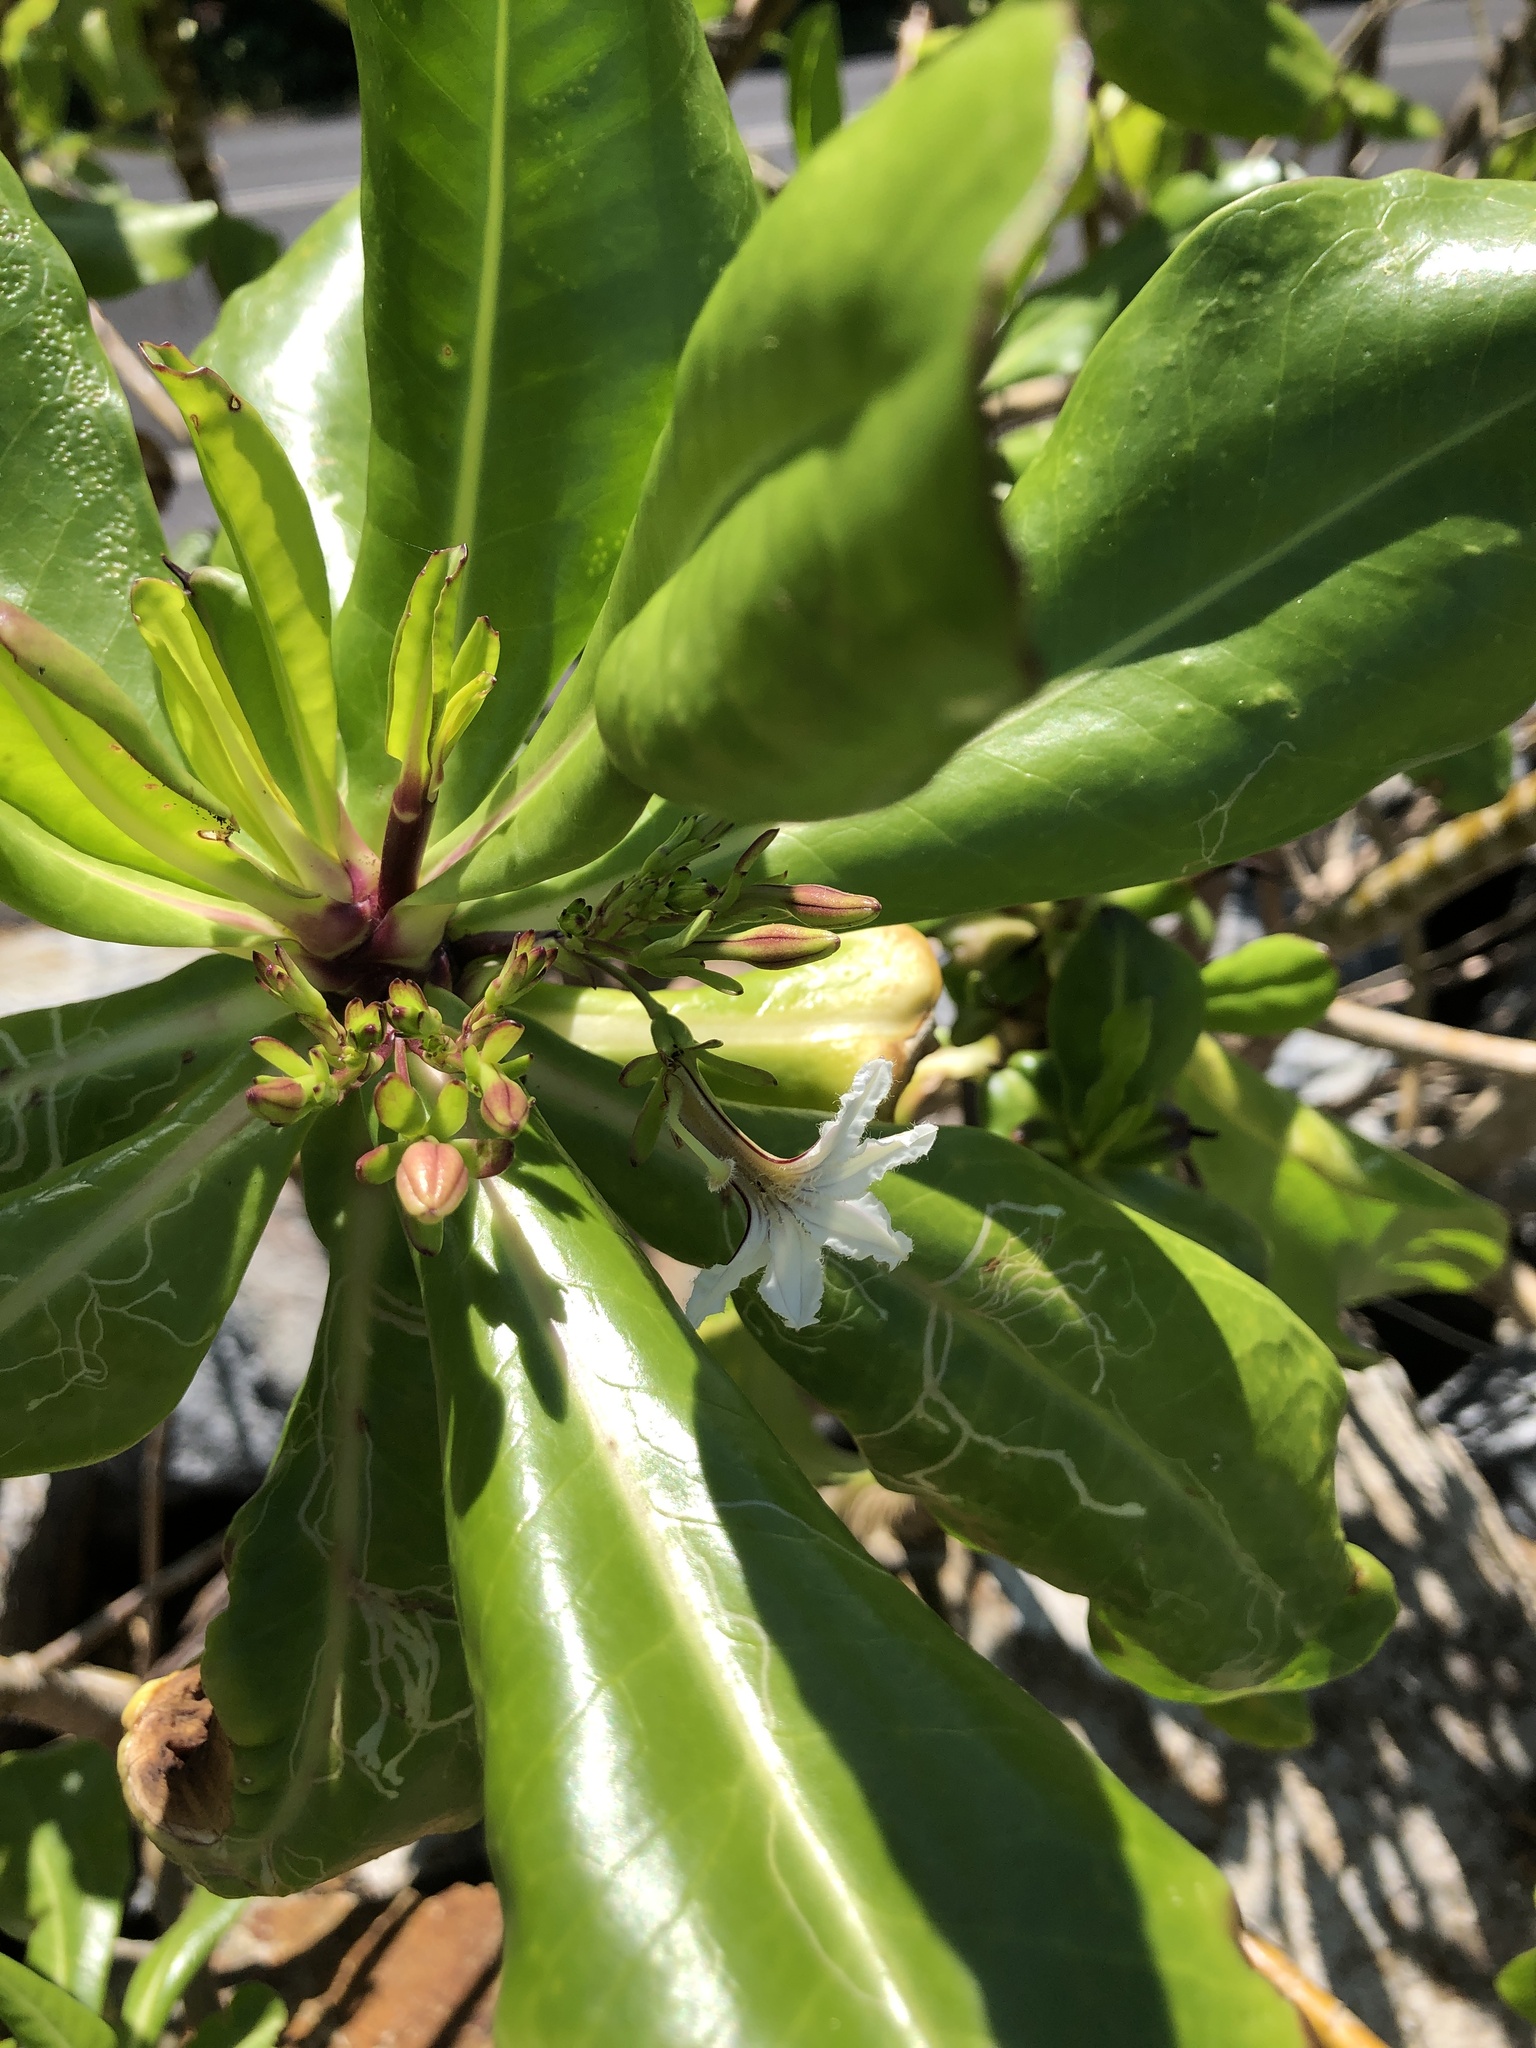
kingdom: Plantae
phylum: Tracheophyta
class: Magnoliopsida
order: Asterales
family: Goodeniaceae
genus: Scaevola
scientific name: Scaevola taccada
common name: Sea lettucetree
